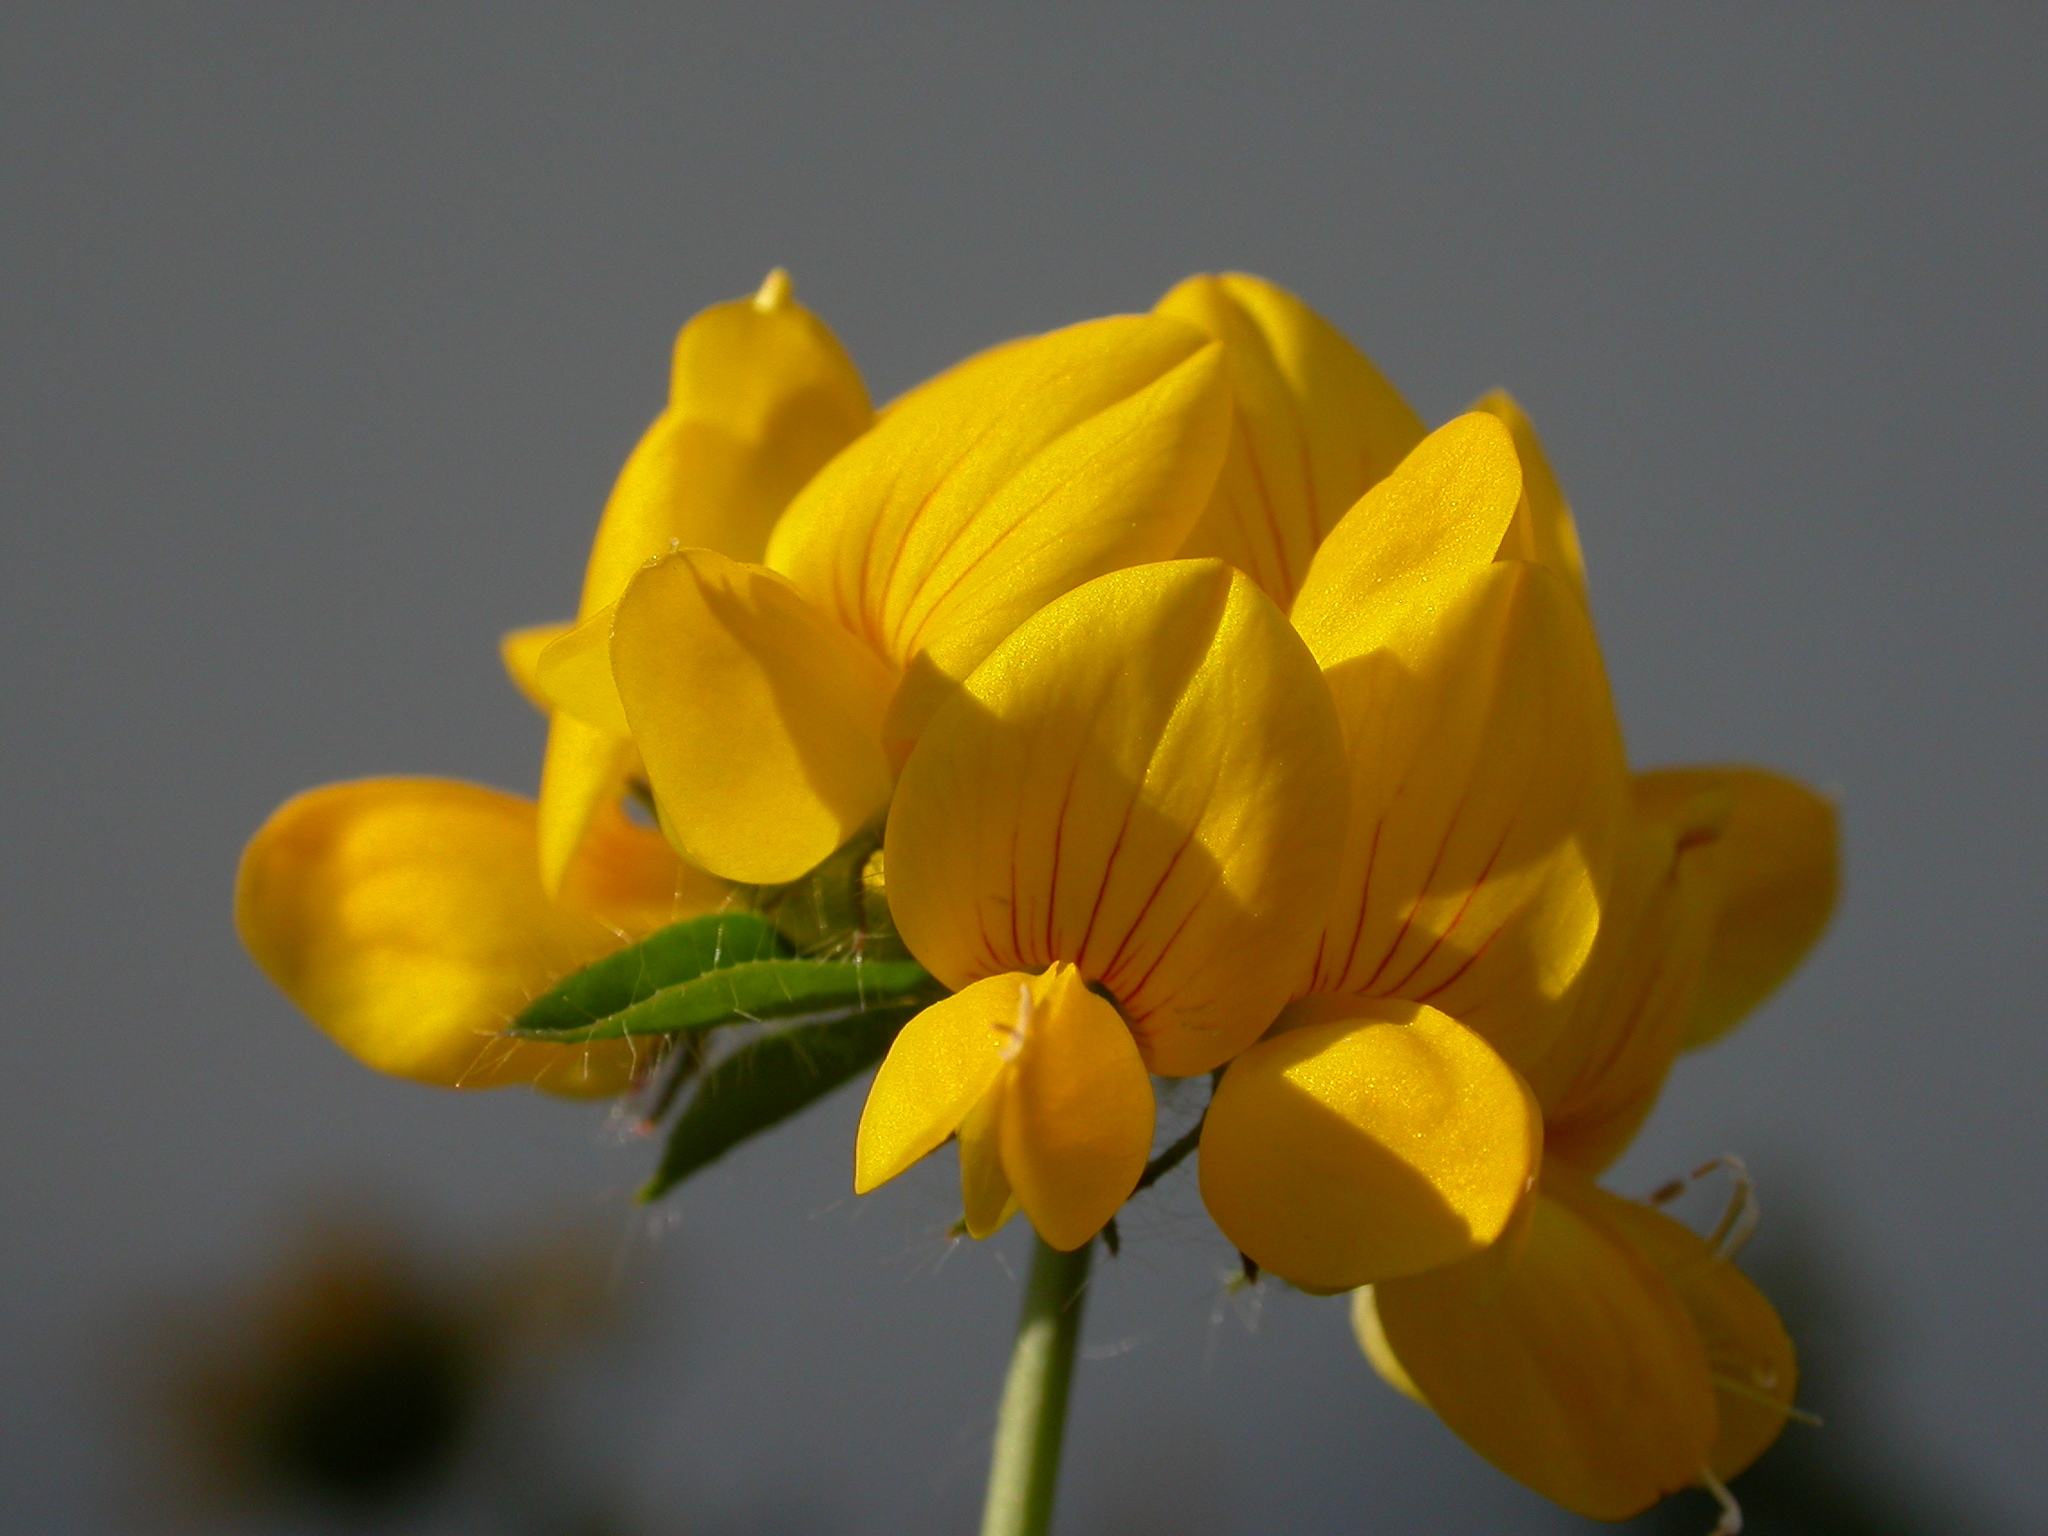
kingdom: Plantae
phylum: Tracheophyta
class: Magnoliopsida
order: Fabales
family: Fabaceae
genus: Lotus
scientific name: Lotus pedunculatus
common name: Greater birdsfoot-trefoil
